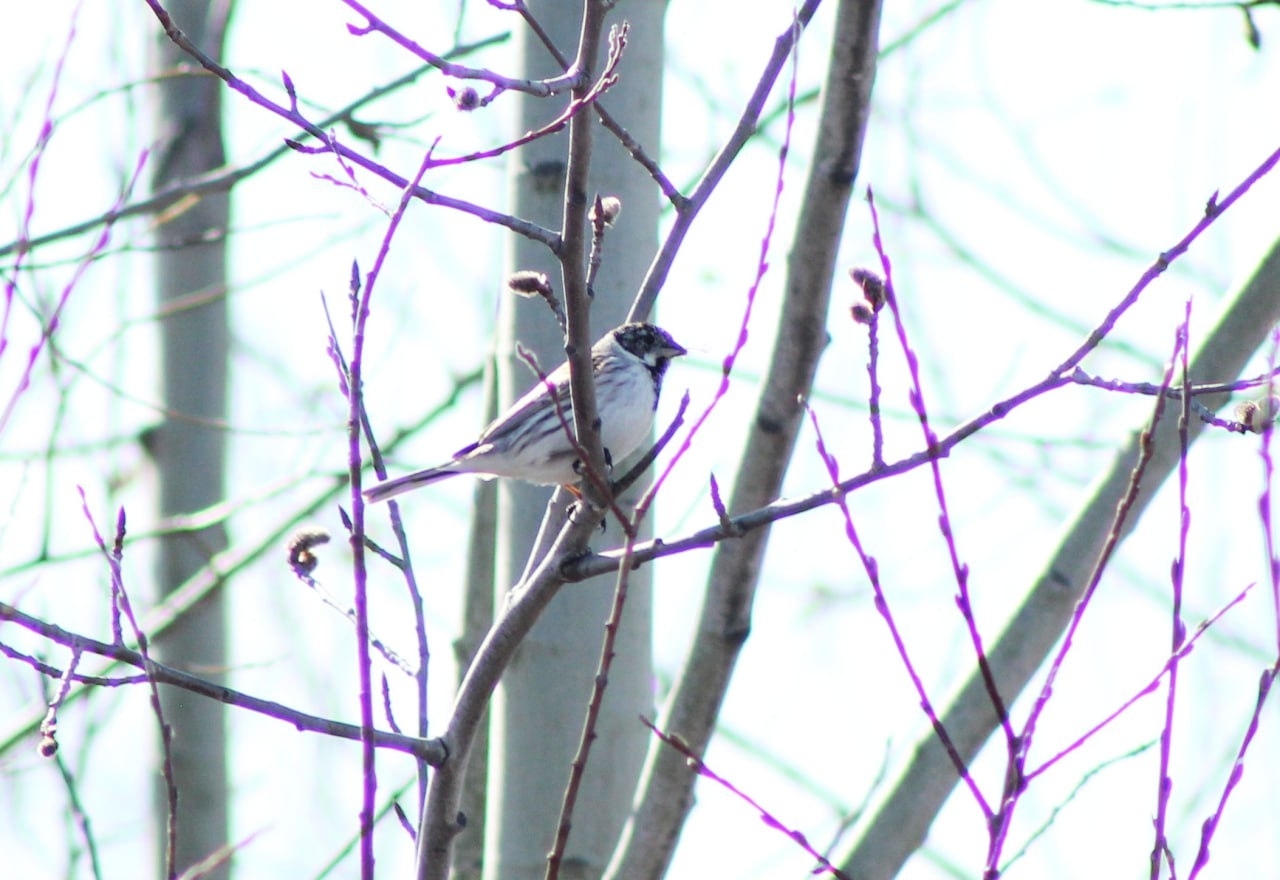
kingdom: Animalia
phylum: Chordata
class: Aves
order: Passeriformes
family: Emberizidae
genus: Emberiza
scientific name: Emberiza schoeniclus
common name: Reed bunting
